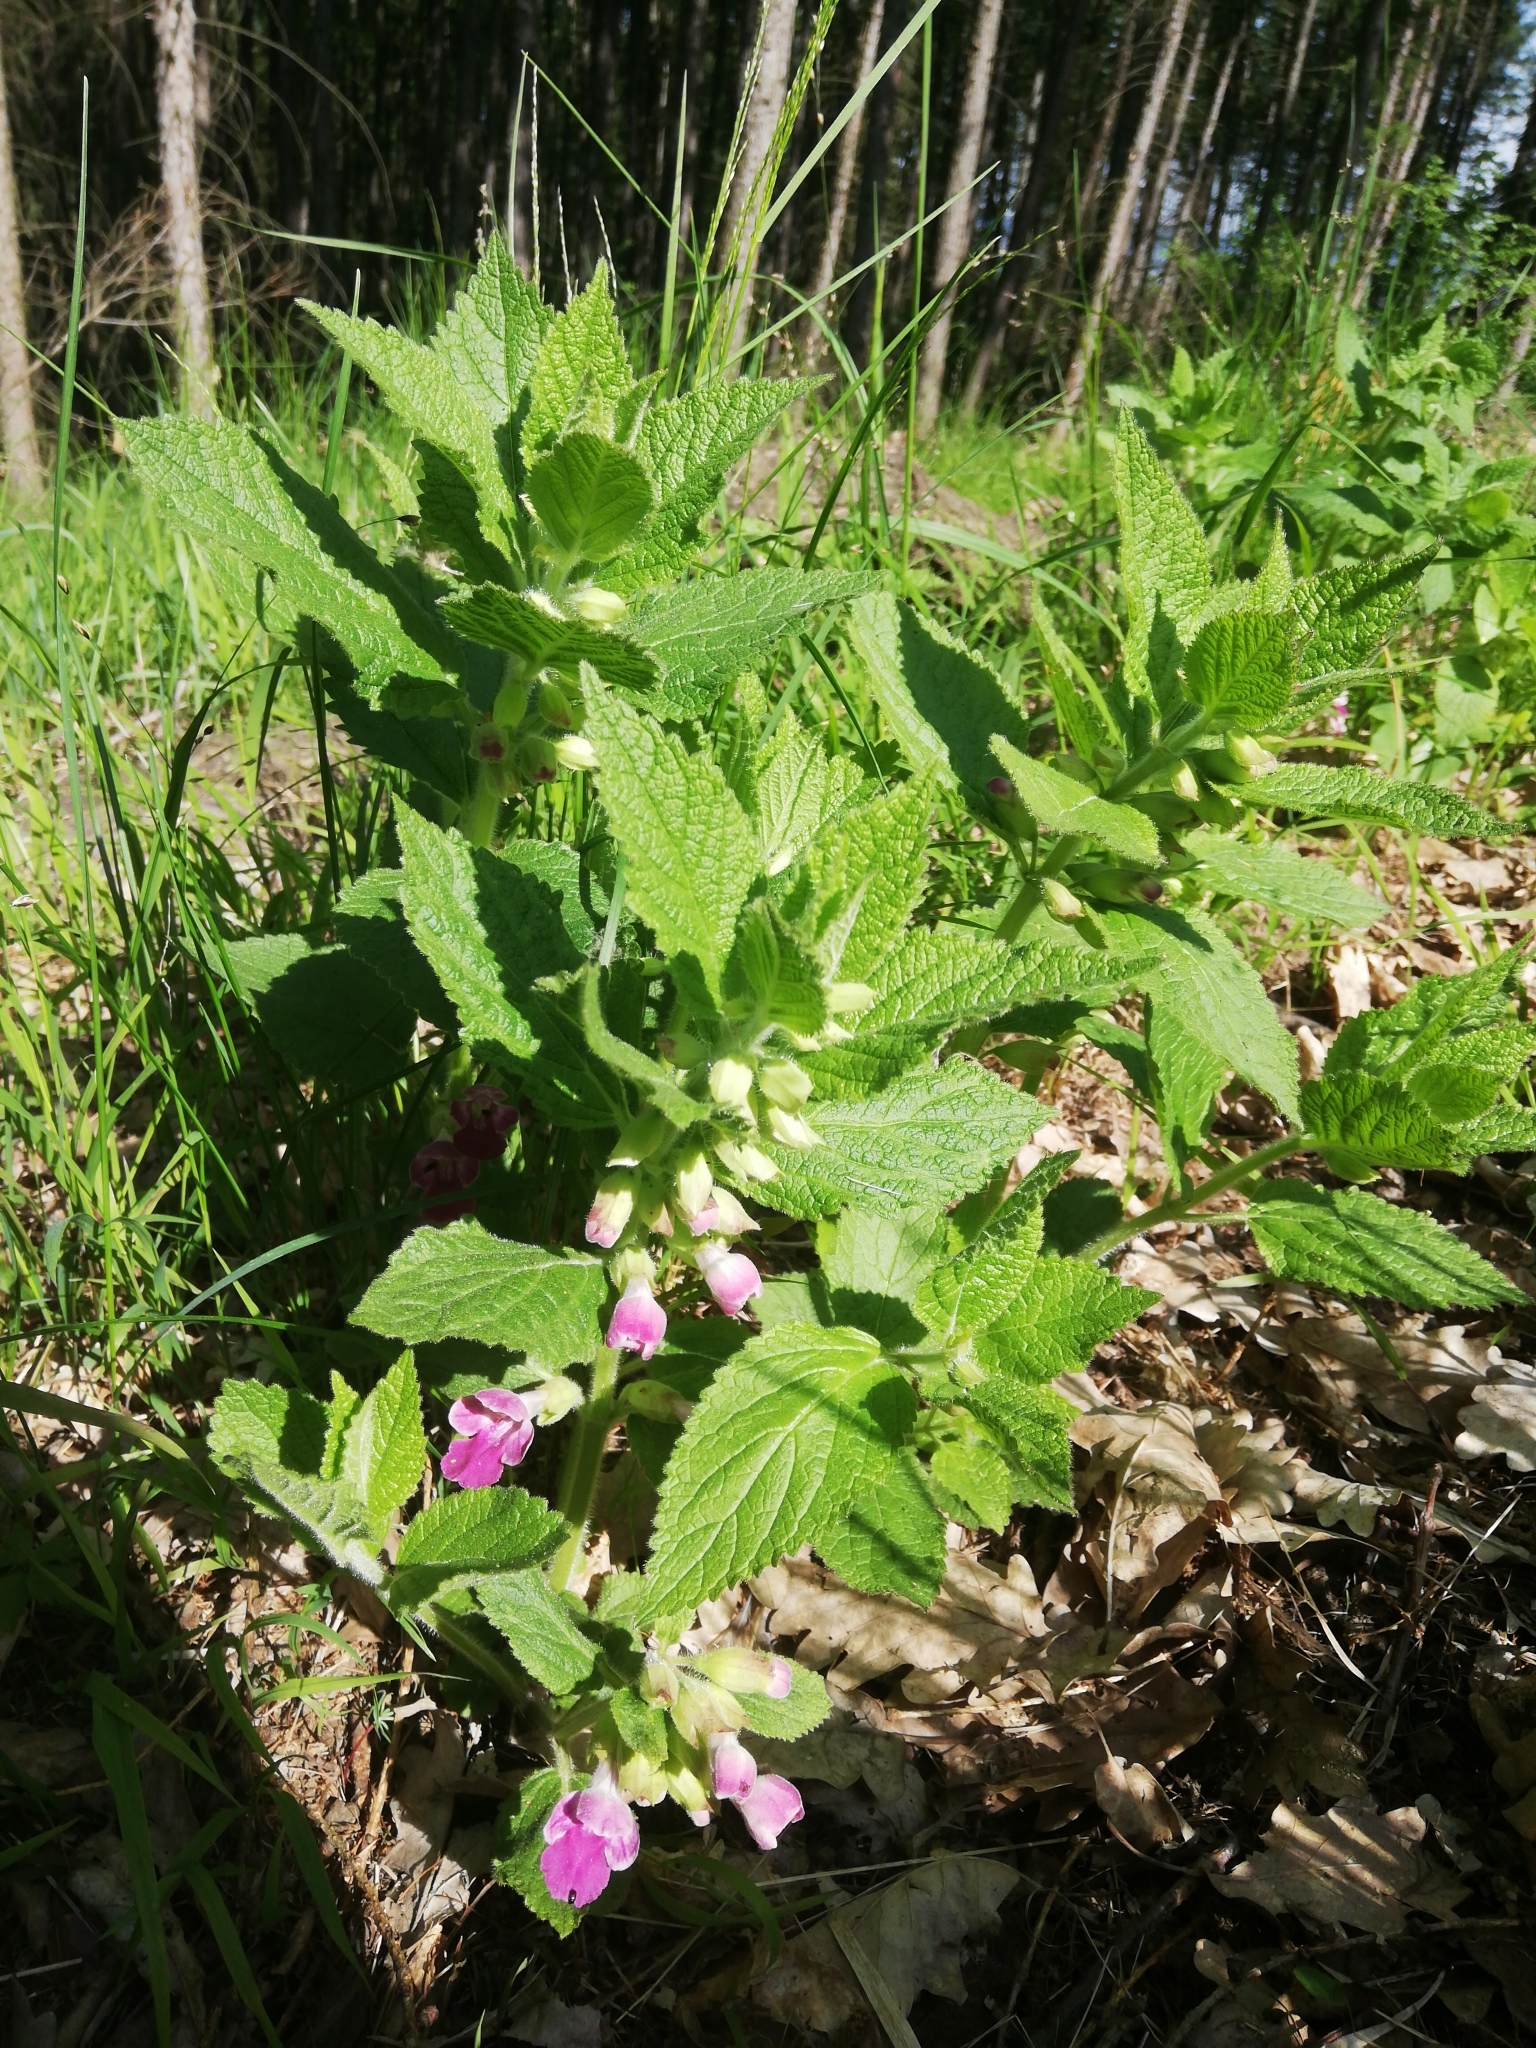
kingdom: Plantae
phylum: Tracheophyta
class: Magnoliopsida
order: Lamiales
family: Lamiaceae
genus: Melittis
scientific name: Melittis melissophyllum
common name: Bastard balm
